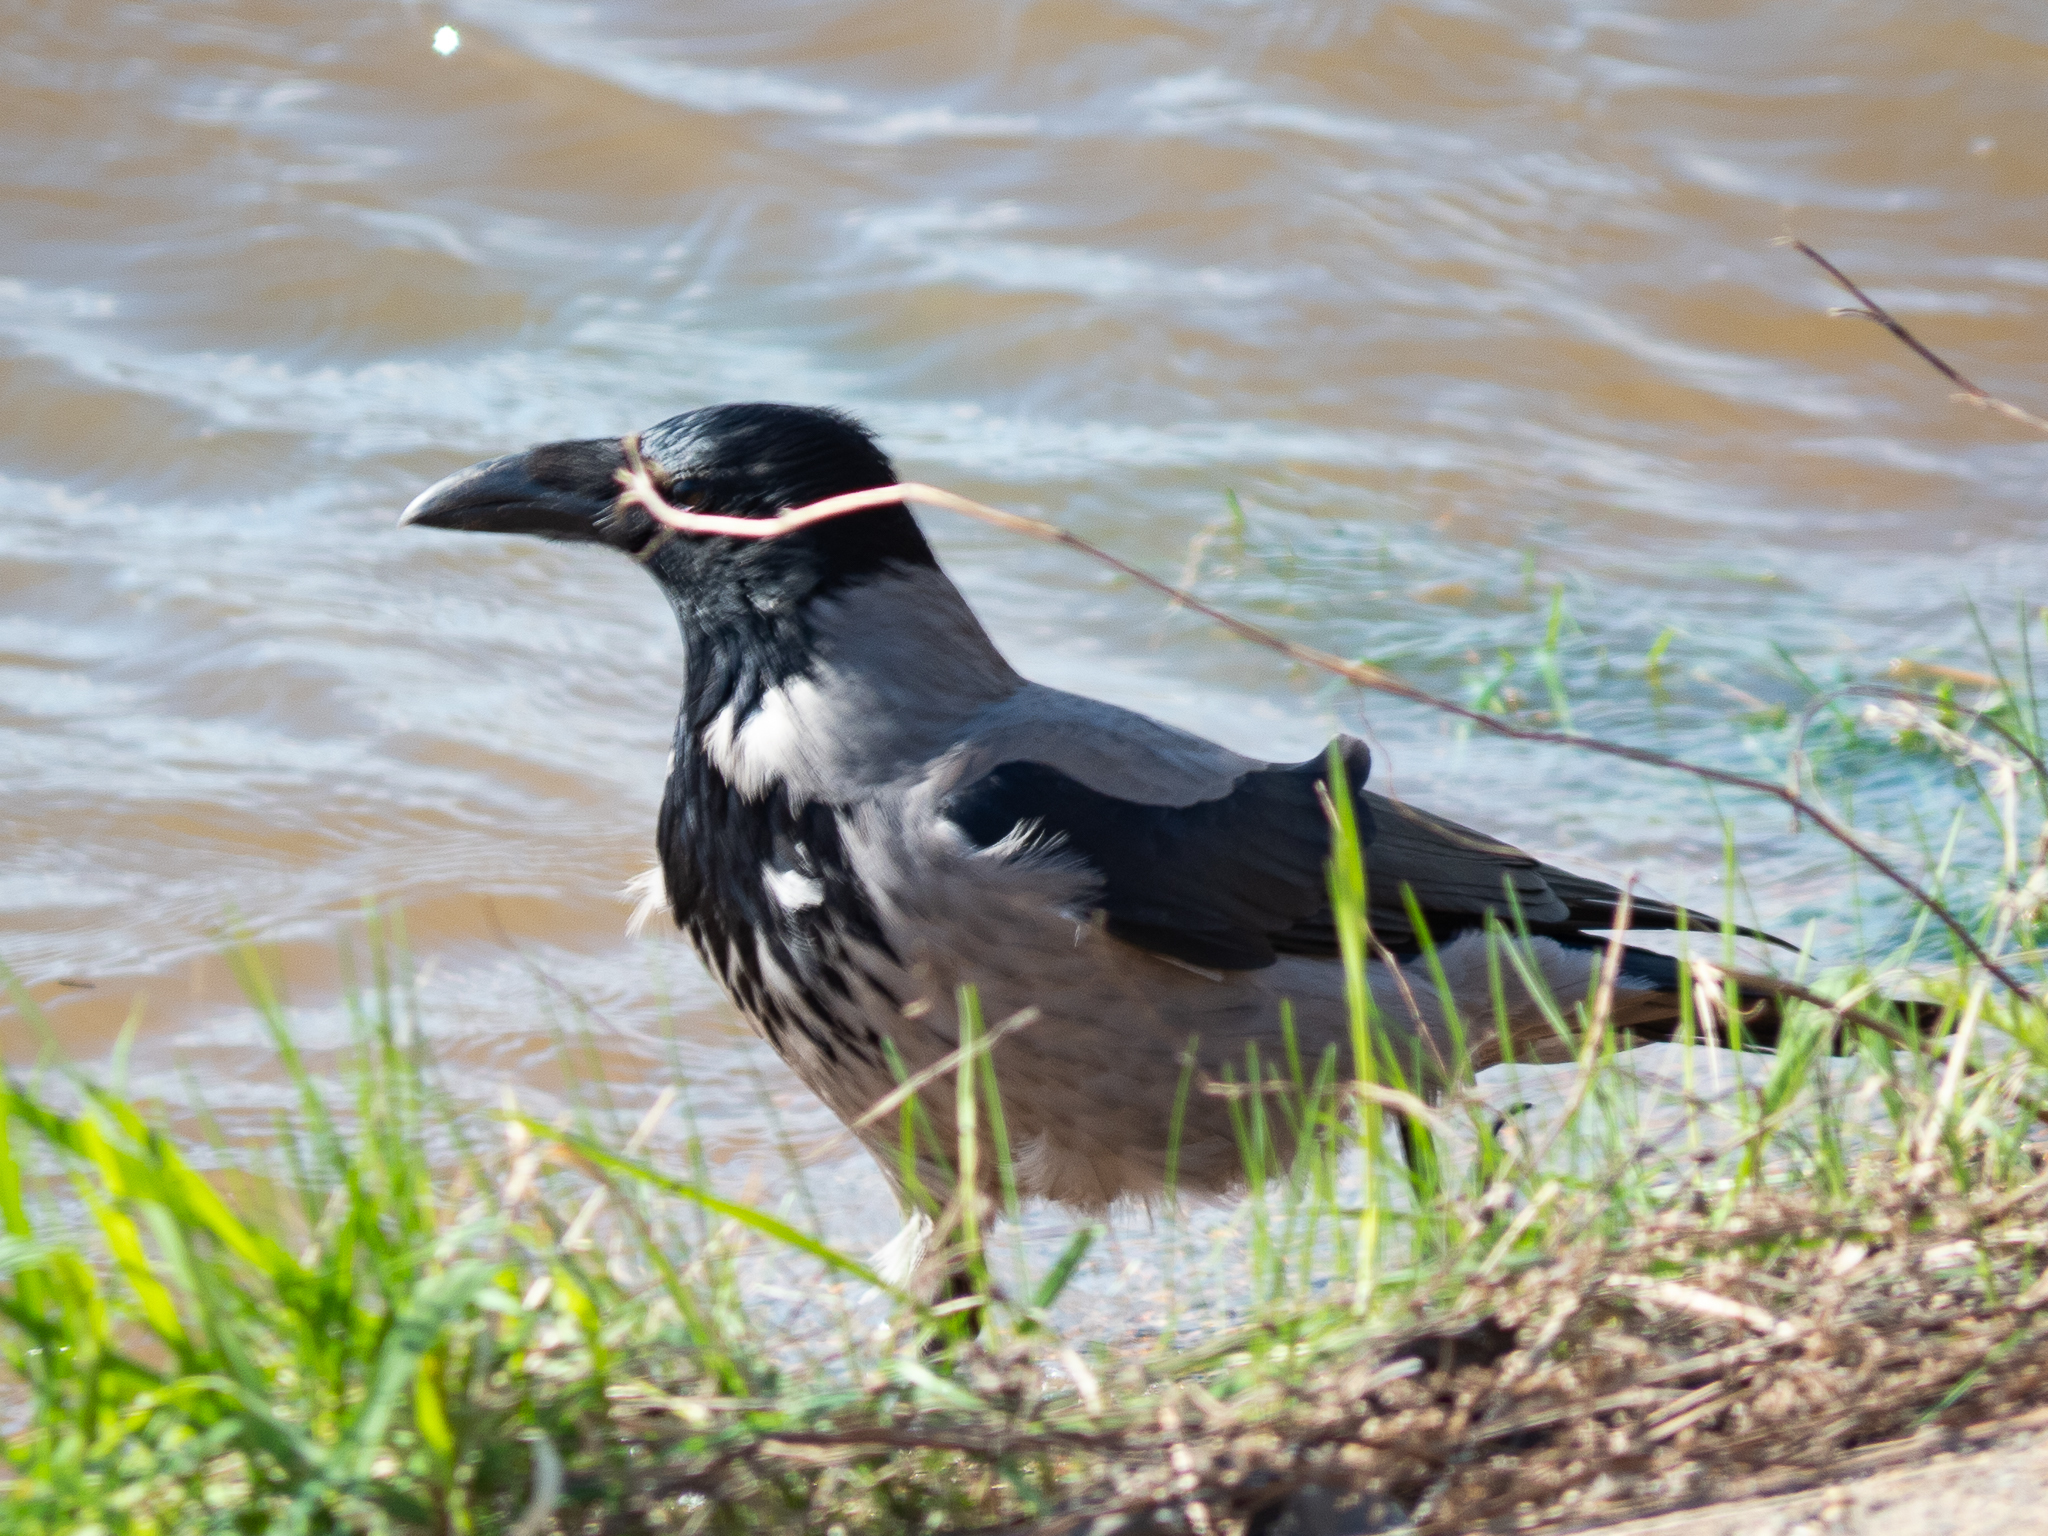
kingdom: Animalia
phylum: Chordata
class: Aves
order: Passeriformes
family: Corvidae
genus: Corvus
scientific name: Corvus cornix
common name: Hooded crow
